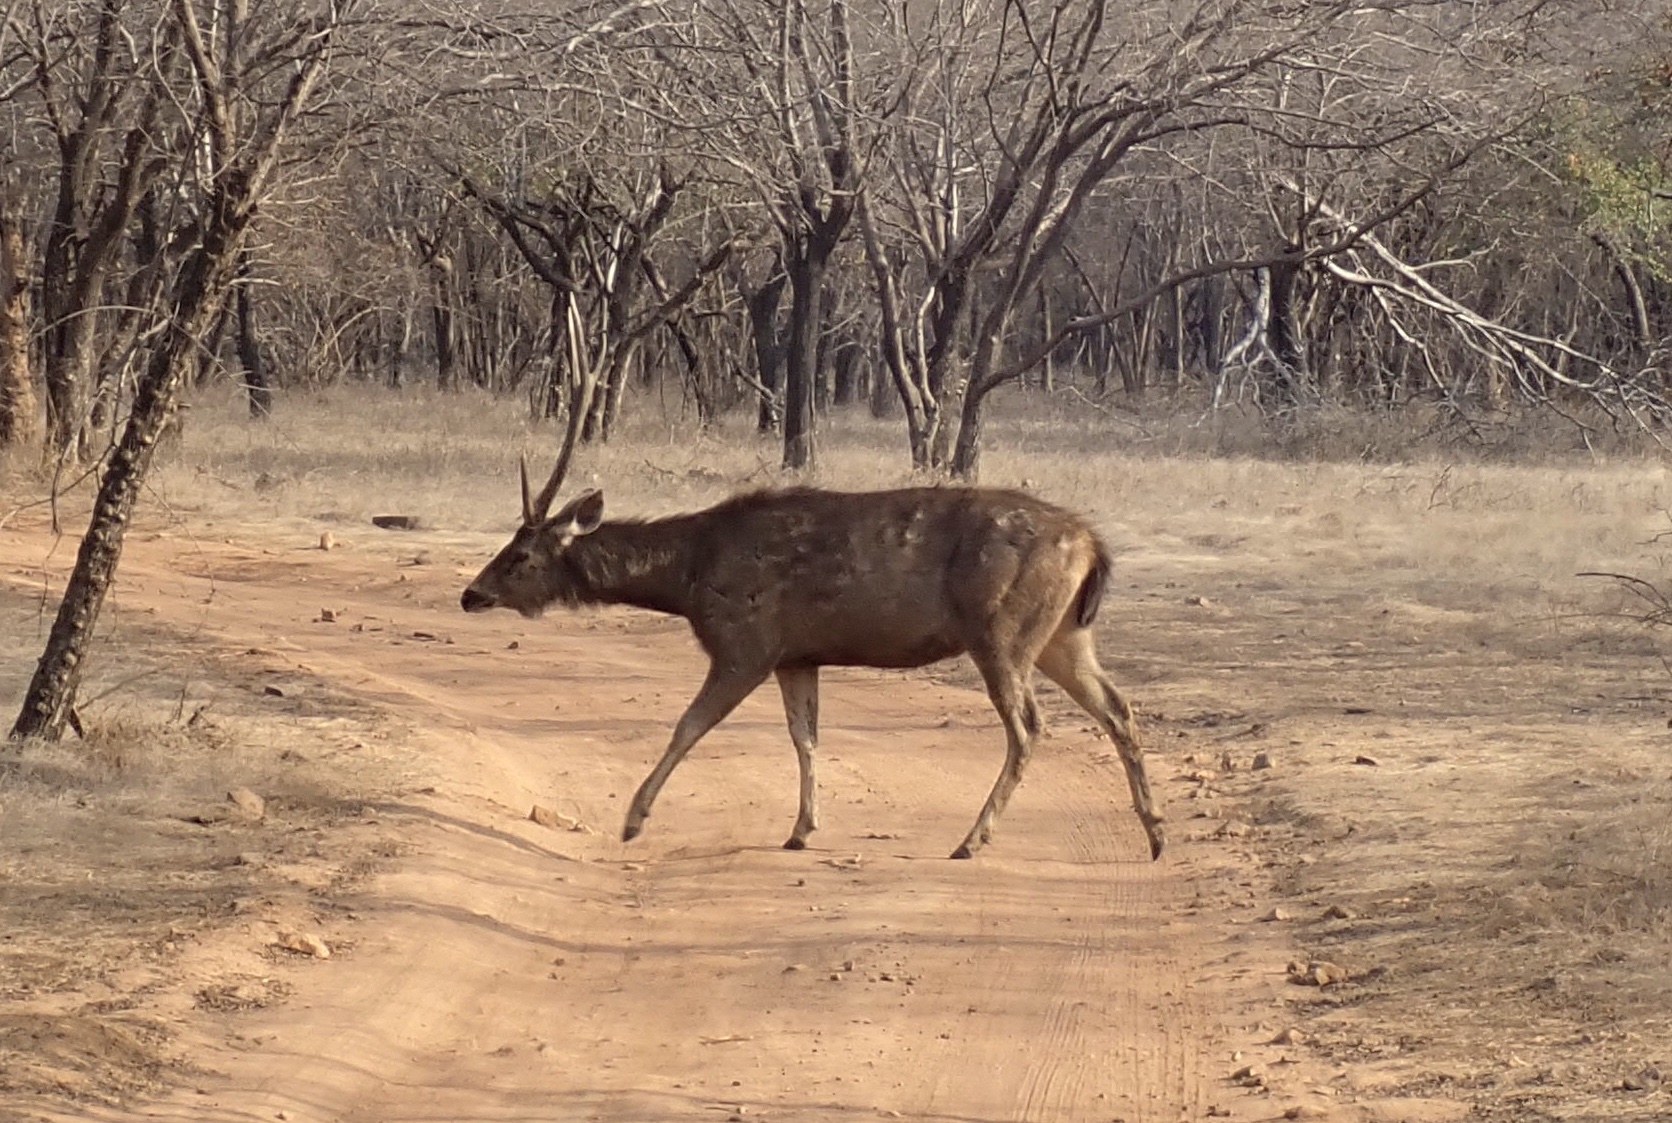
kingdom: Animalia
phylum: Chordata
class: Mammalia
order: Artiodactyla
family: Cervidae
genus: Rusa
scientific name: Rusa unicolor
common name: Sambar
